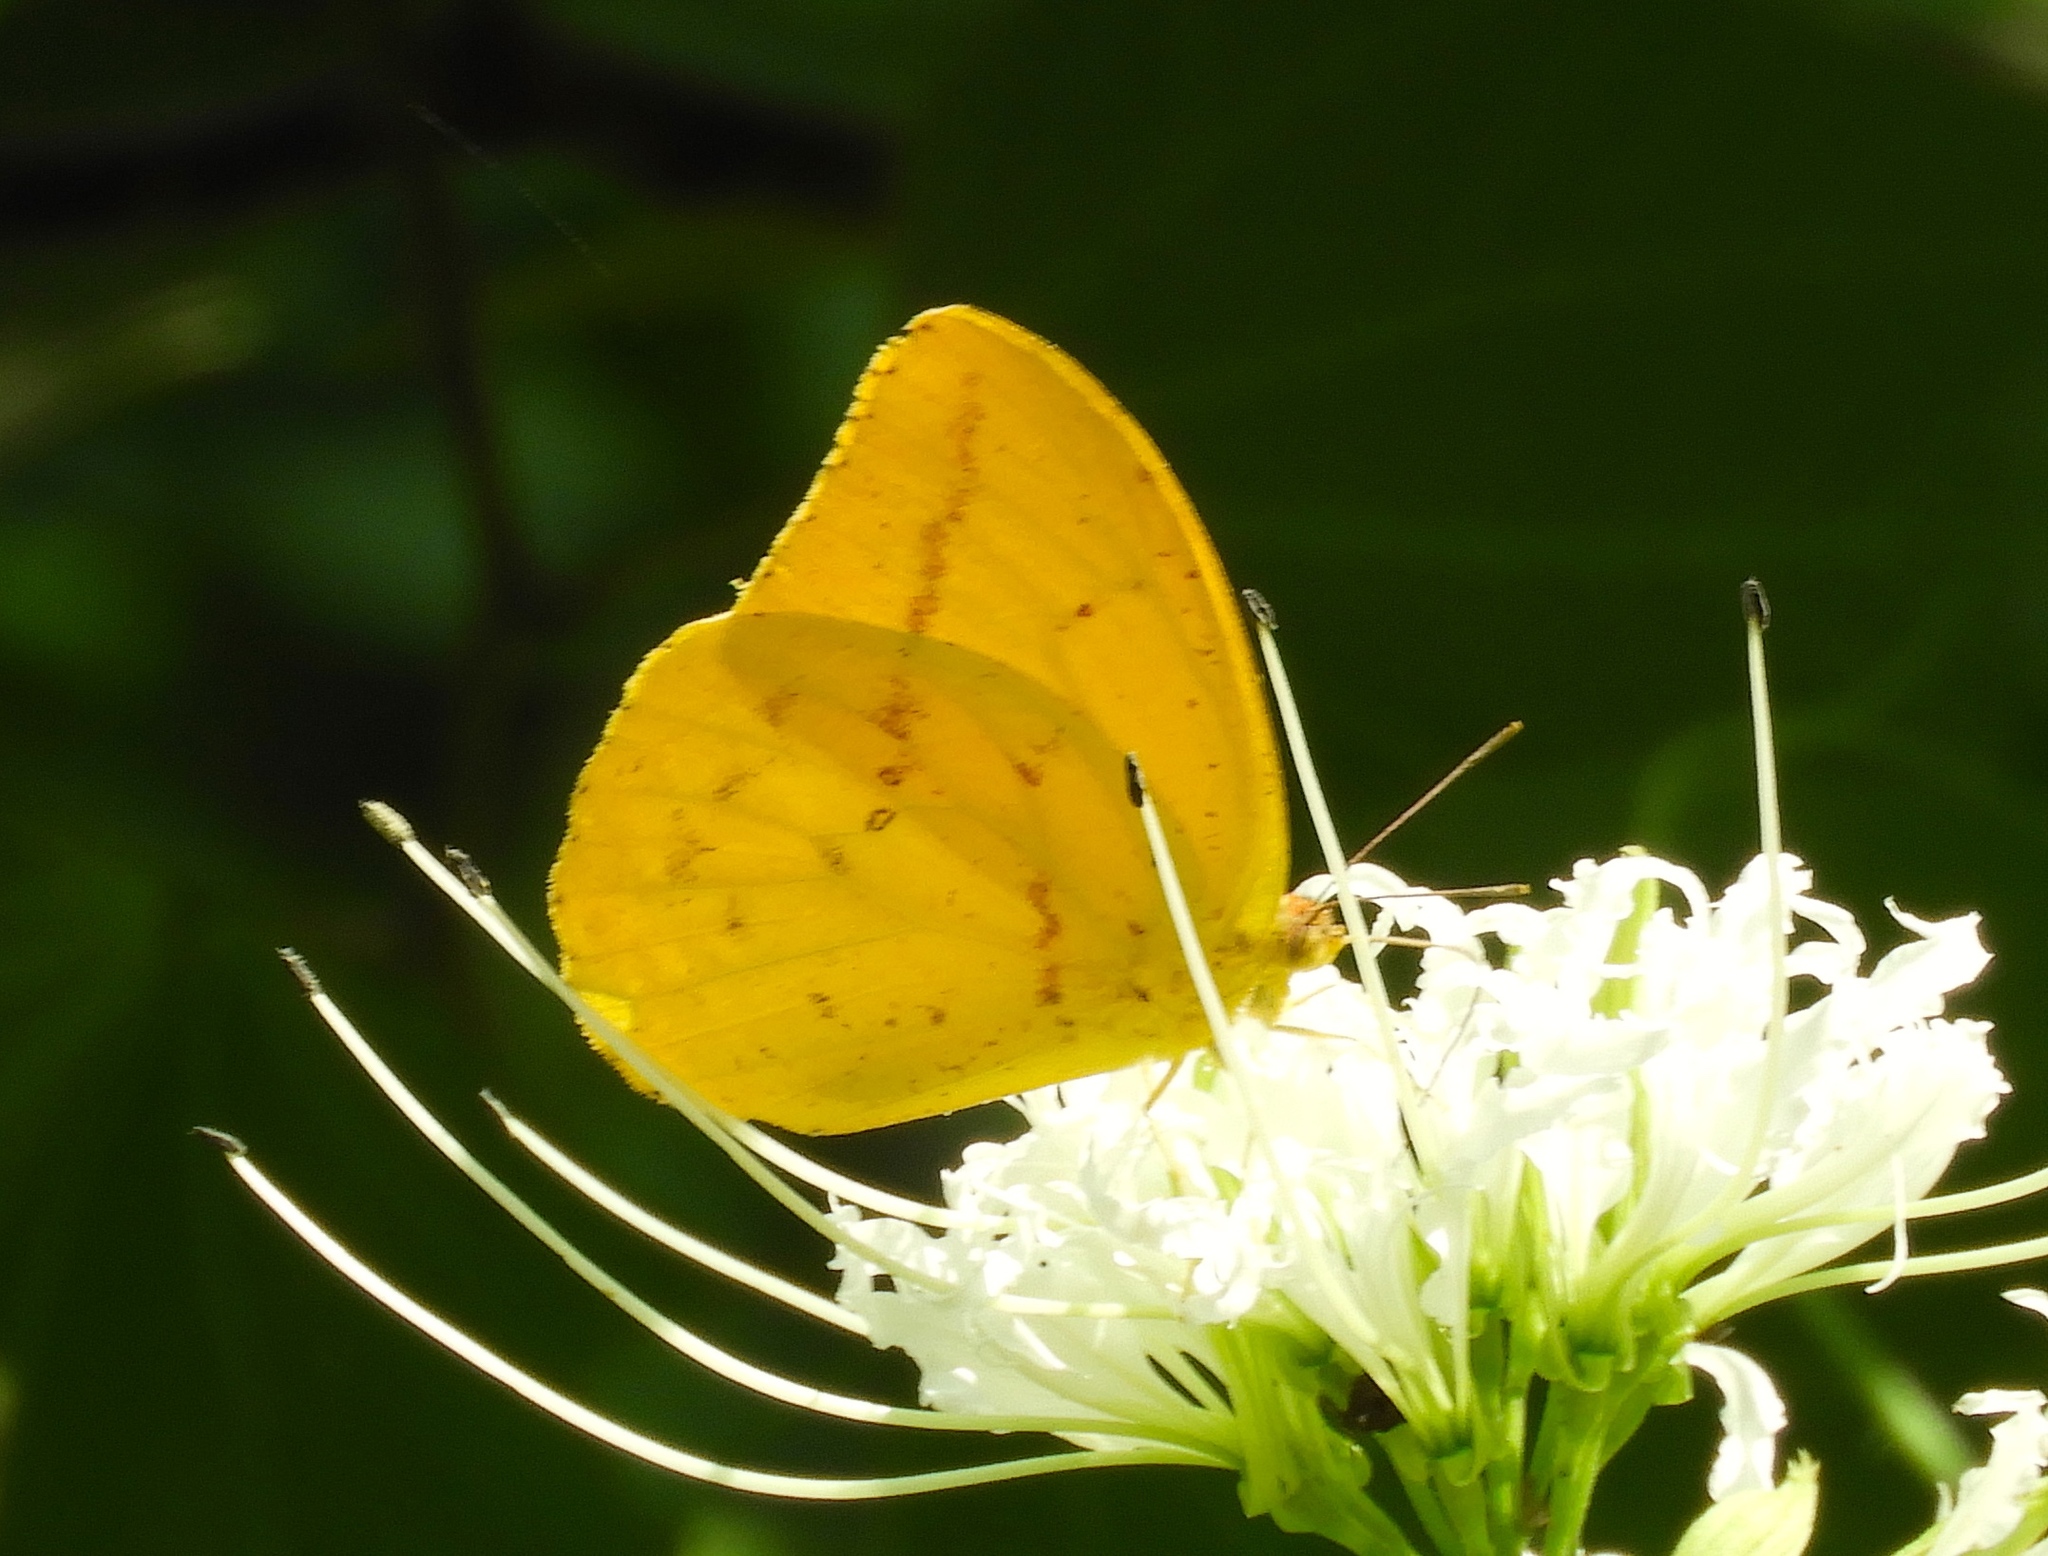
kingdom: Animalia
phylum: Arthropoda
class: Insecta
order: Lepidoptera
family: Pieridae
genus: Phoebis
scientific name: Phoebis agarithe
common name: Large orange sulphur
